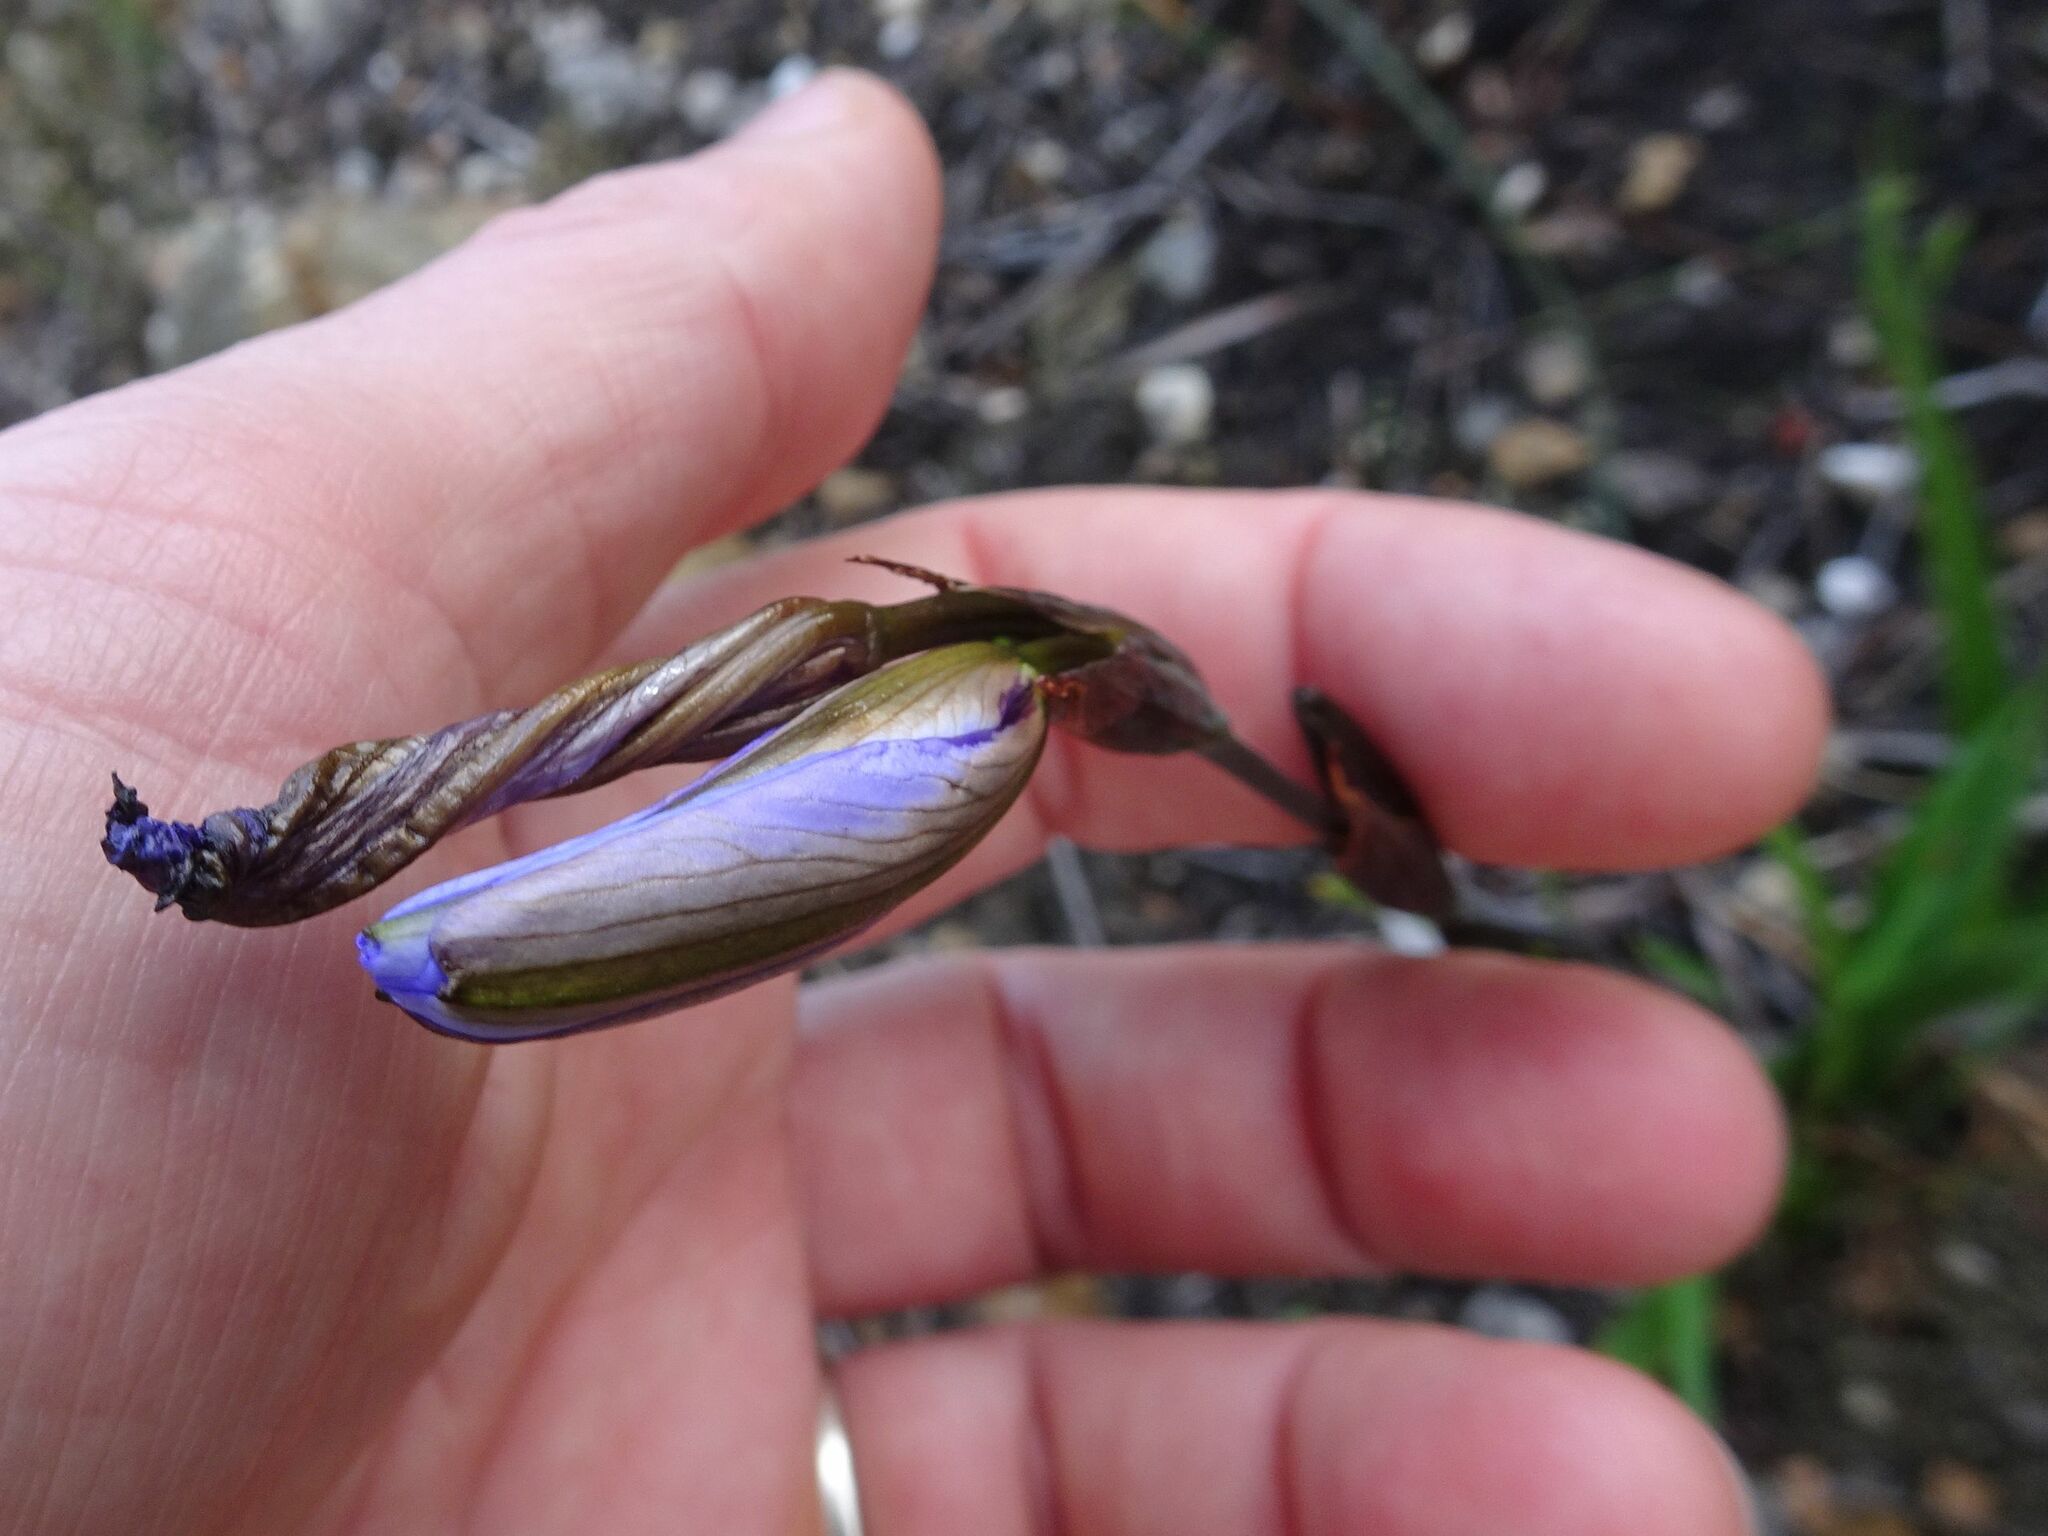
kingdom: Plantae
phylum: Tracheophyta
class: Liliopsida
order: Asparagales
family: Iridaceae
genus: Aristea
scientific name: Aristea spiralis
